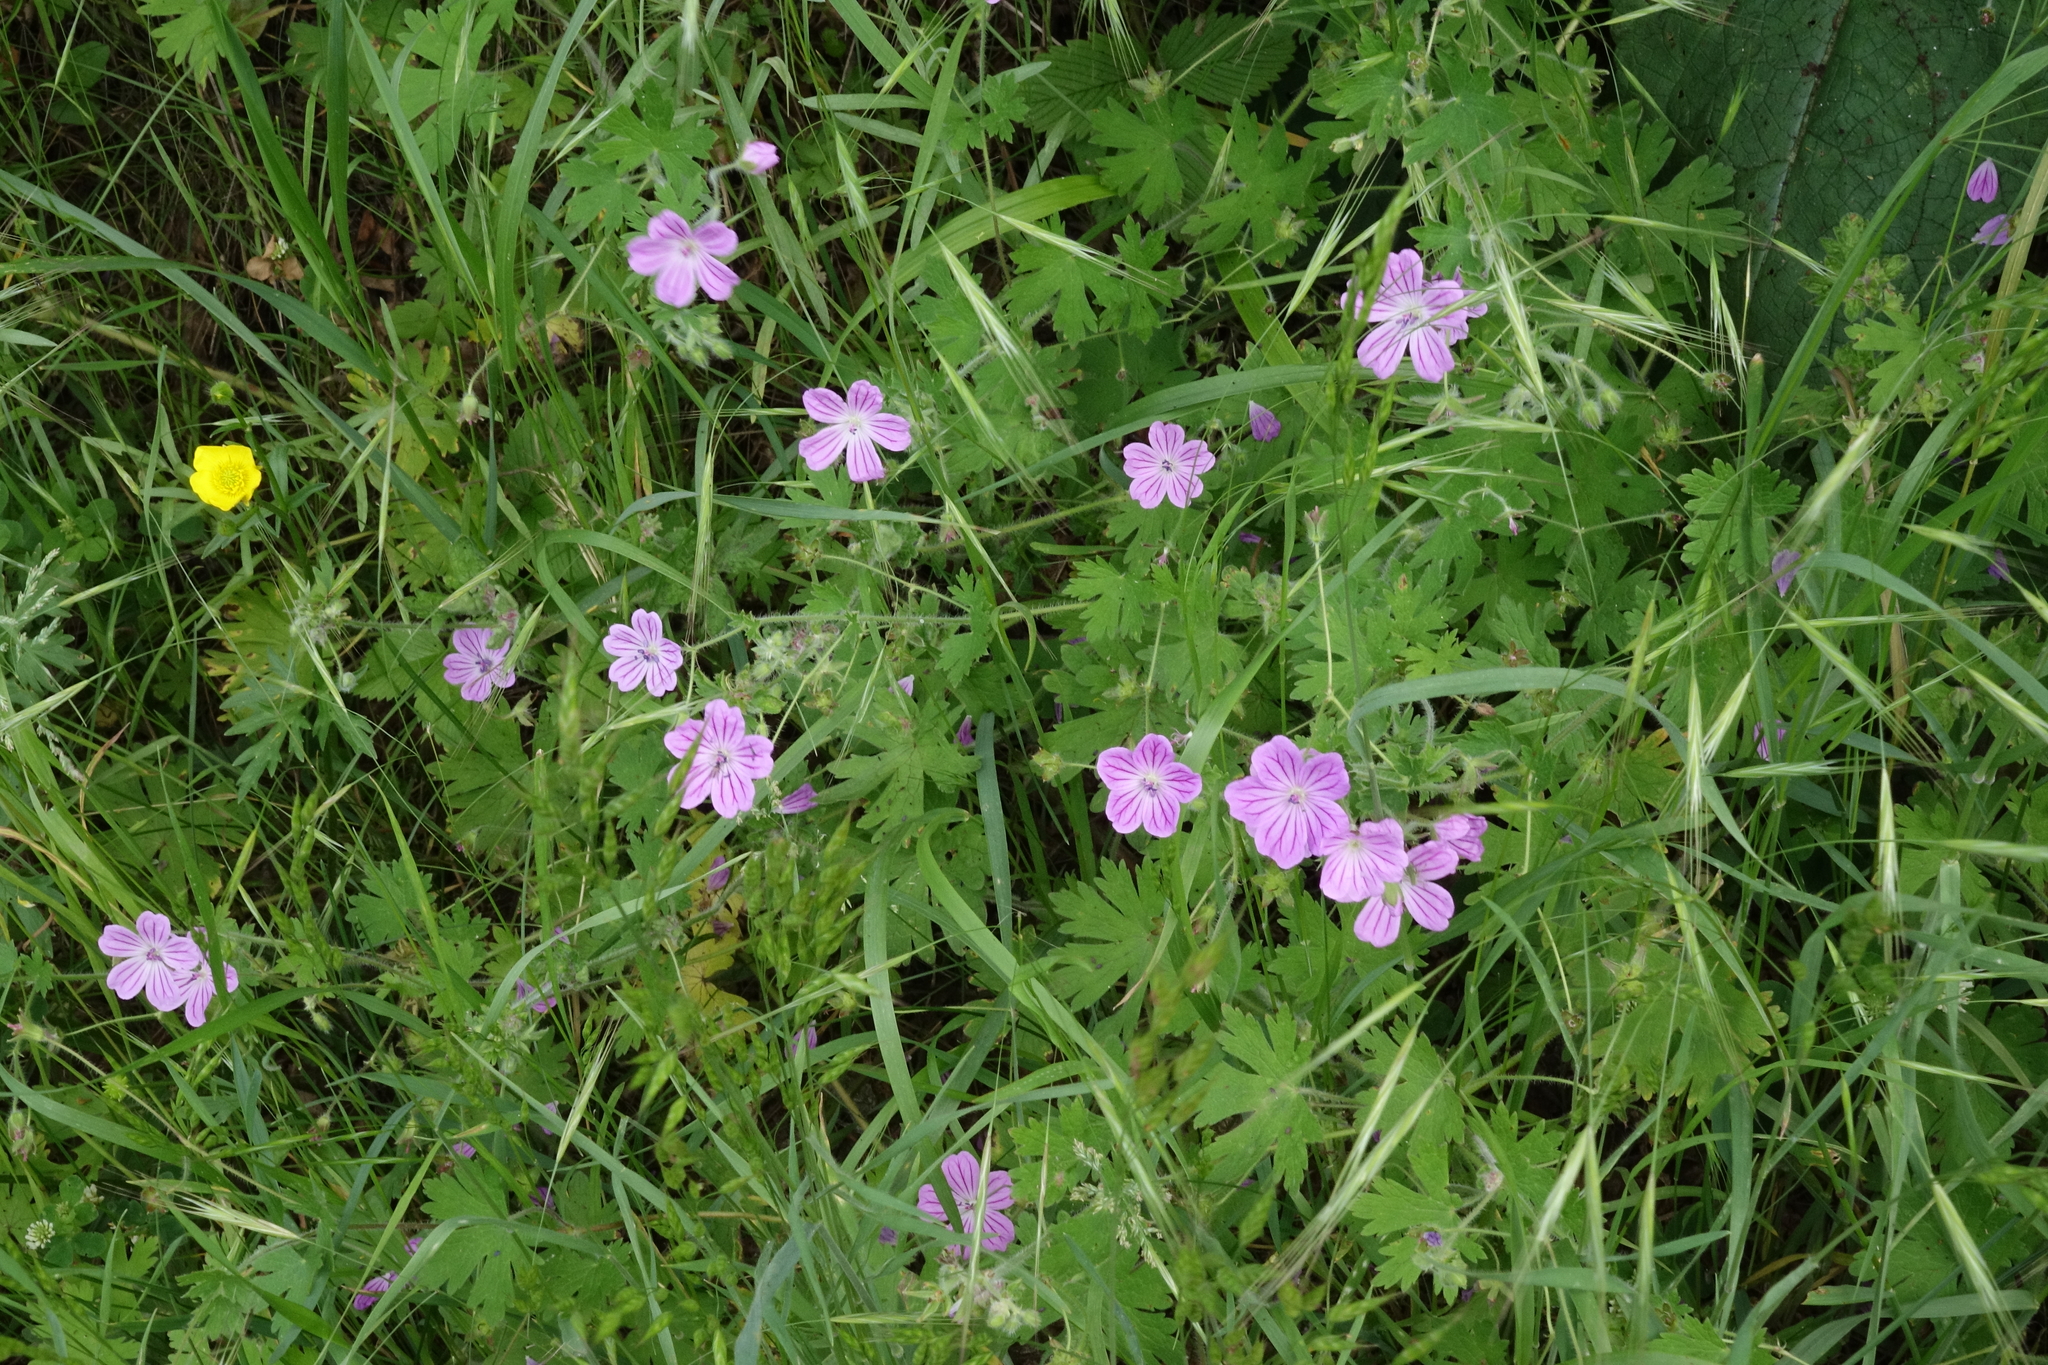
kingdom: Plantae
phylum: Tracheophyta
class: Magnoliopsida
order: Geraniales
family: Geraniaceae
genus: Geranium
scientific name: Geranium albanum
